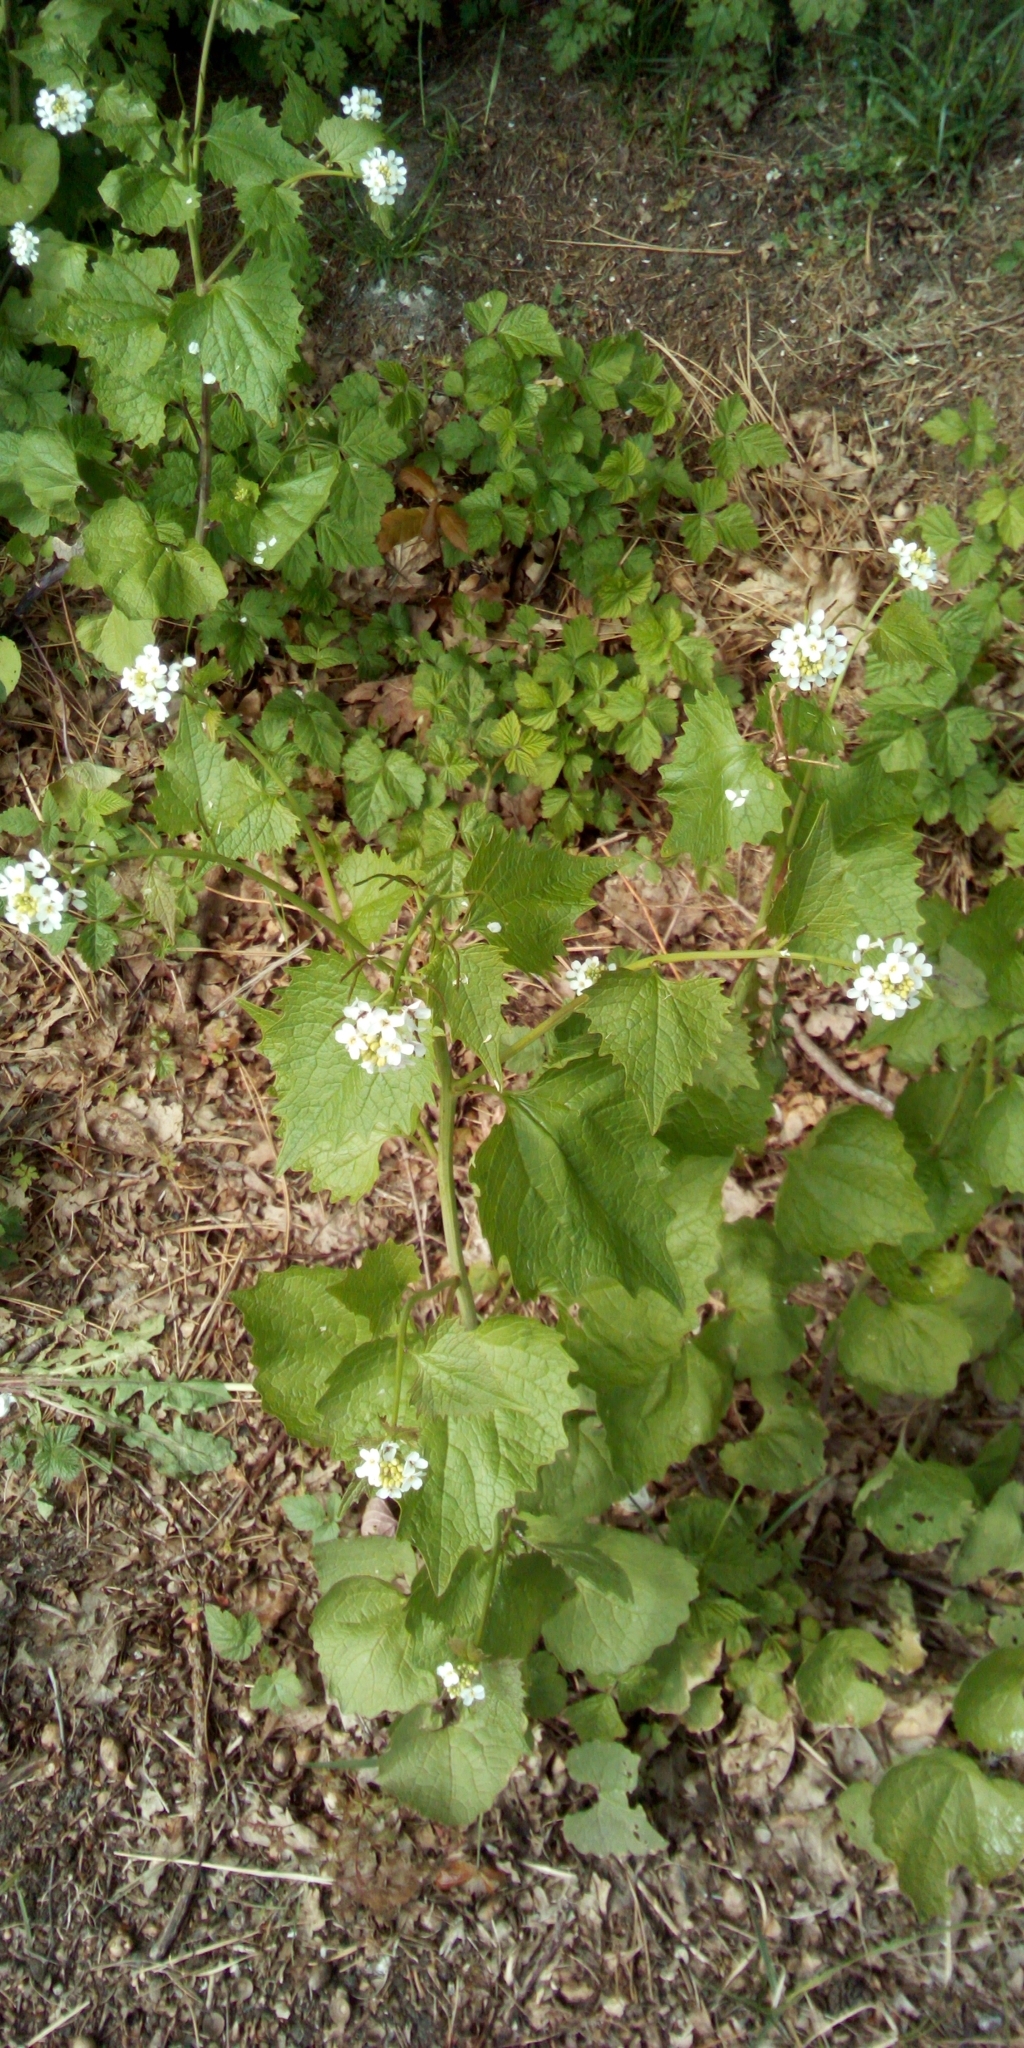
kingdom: Plantae
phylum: Tracheophyta
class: Magnoliopsida
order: Brassicales
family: Brassicaceae
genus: Alliaria
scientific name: Alliaria petiolata
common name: Garlic mustard
